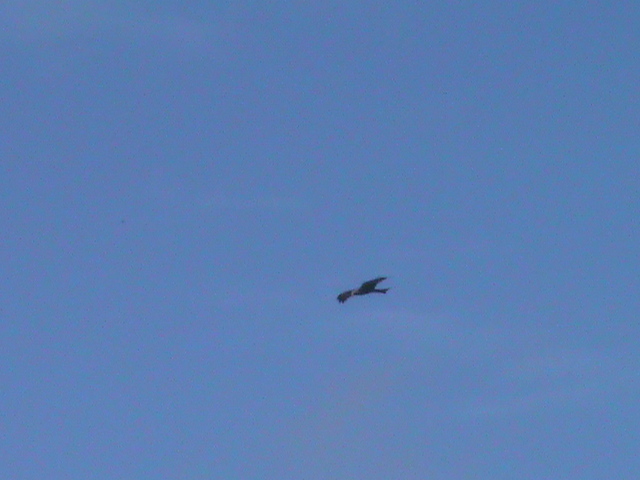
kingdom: Animalia
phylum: Chordata
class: Aves
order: Accipitriformes
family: Accipitridae
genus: Milvus
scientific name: Milvus migrans
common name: Black kite
